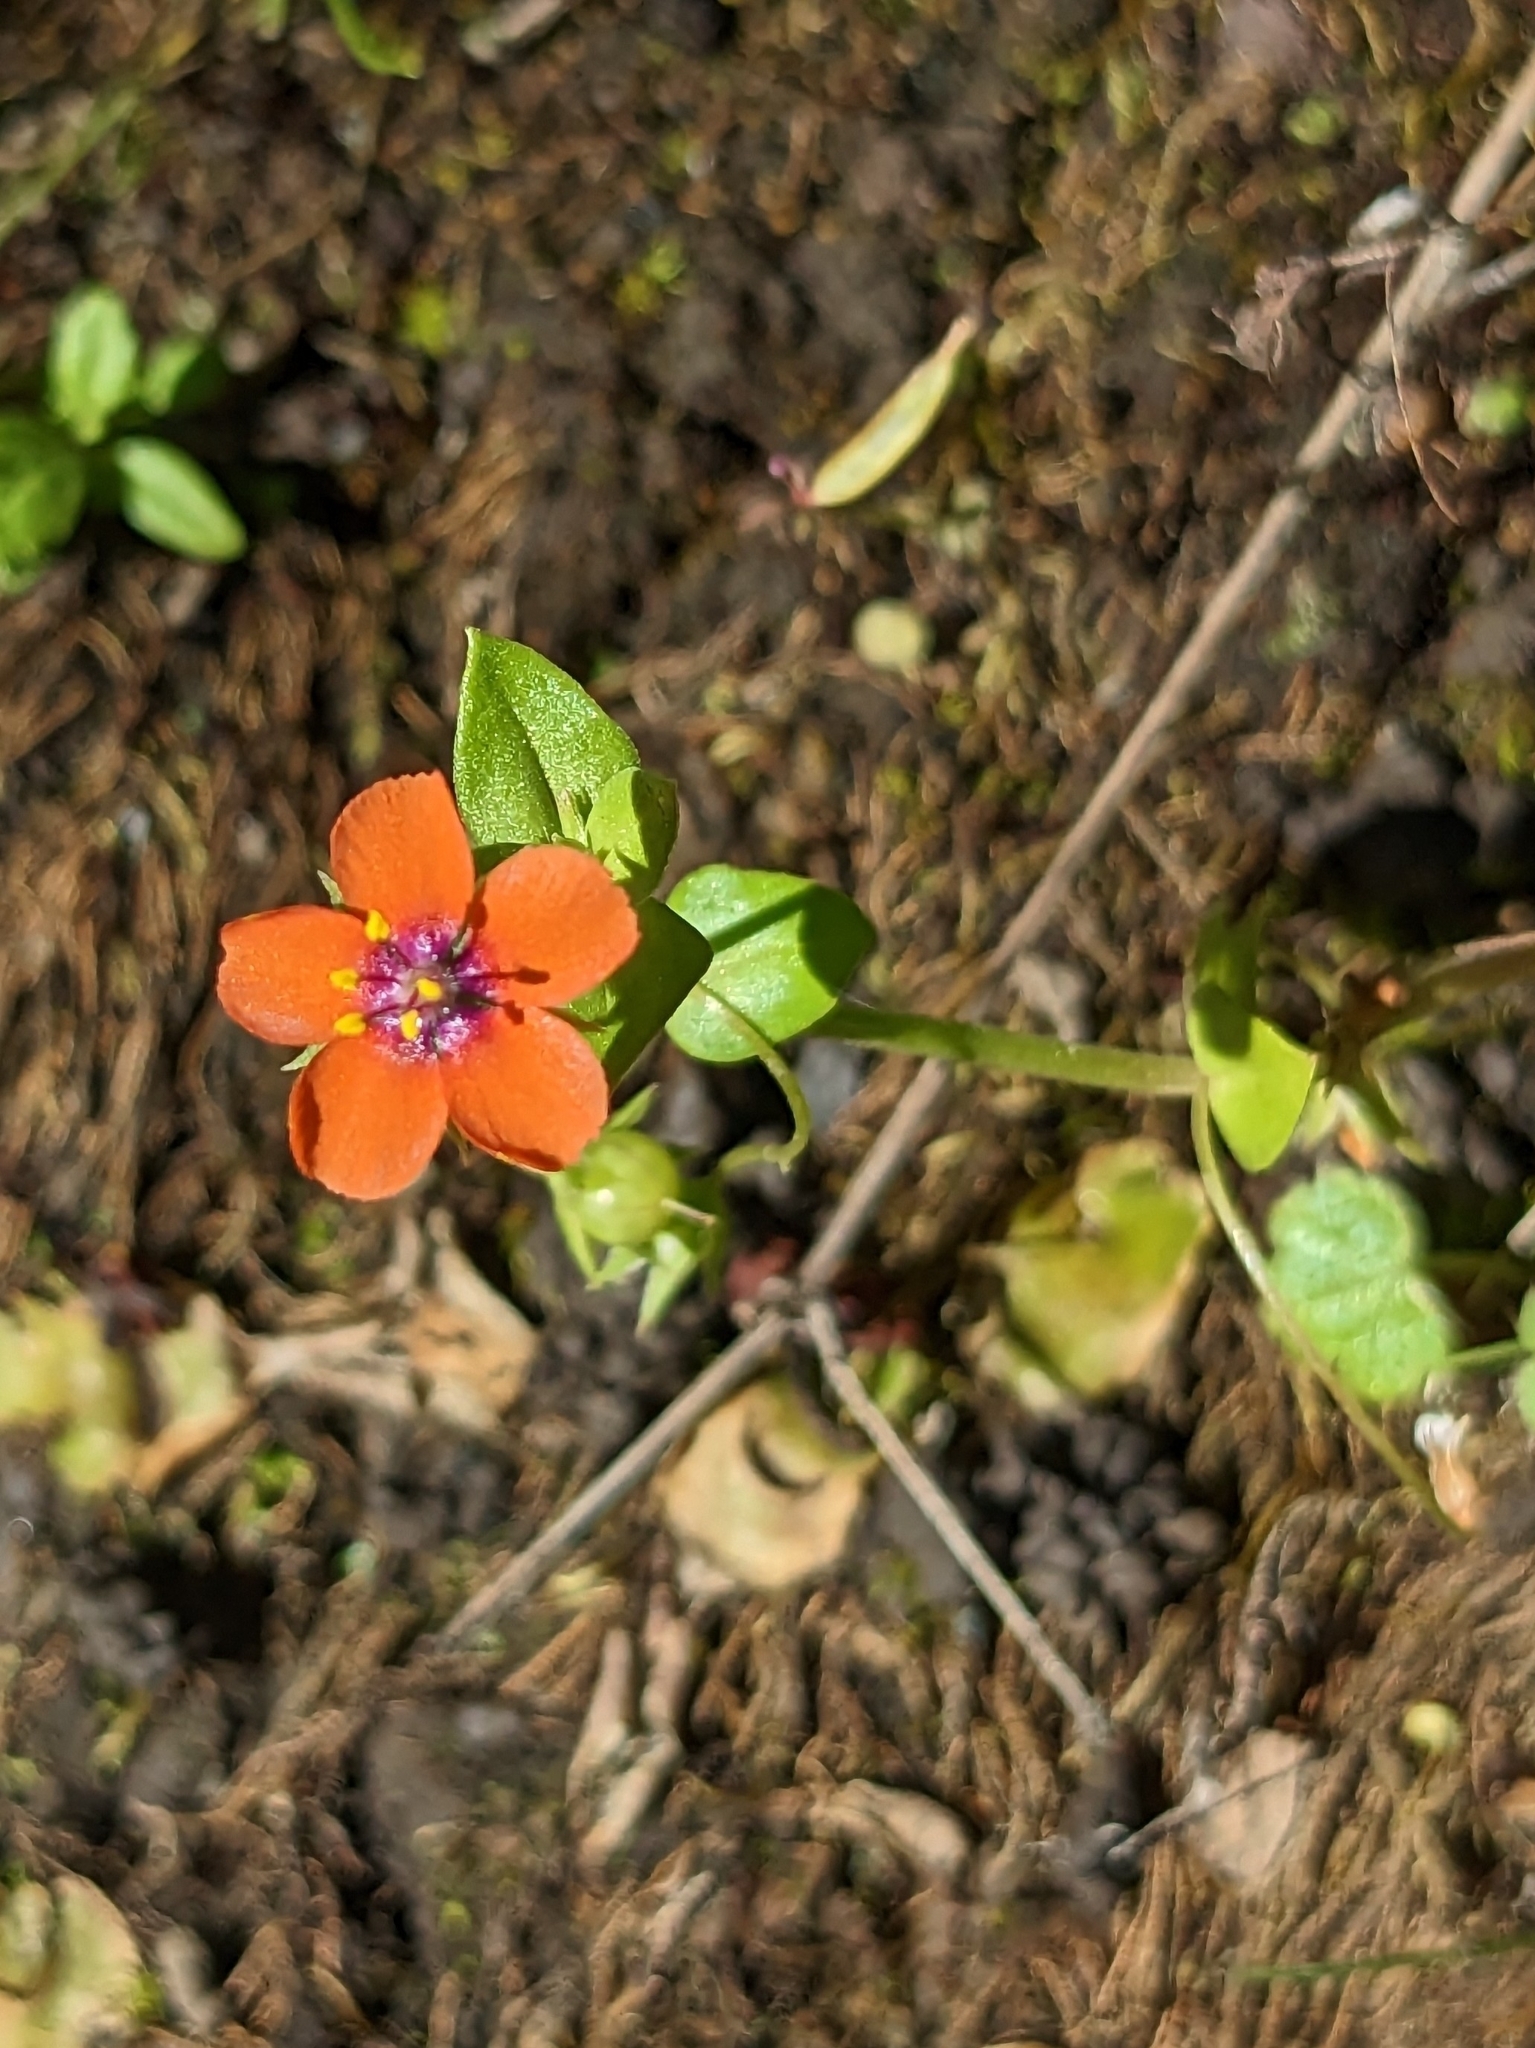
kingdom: Plantae
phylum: Tracheophyta
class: Magnoliopsida
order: Ericales
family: Primulaceae
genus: Lysimachia
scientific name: Lysimachia arvensis
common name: Scarlet pimpernel
